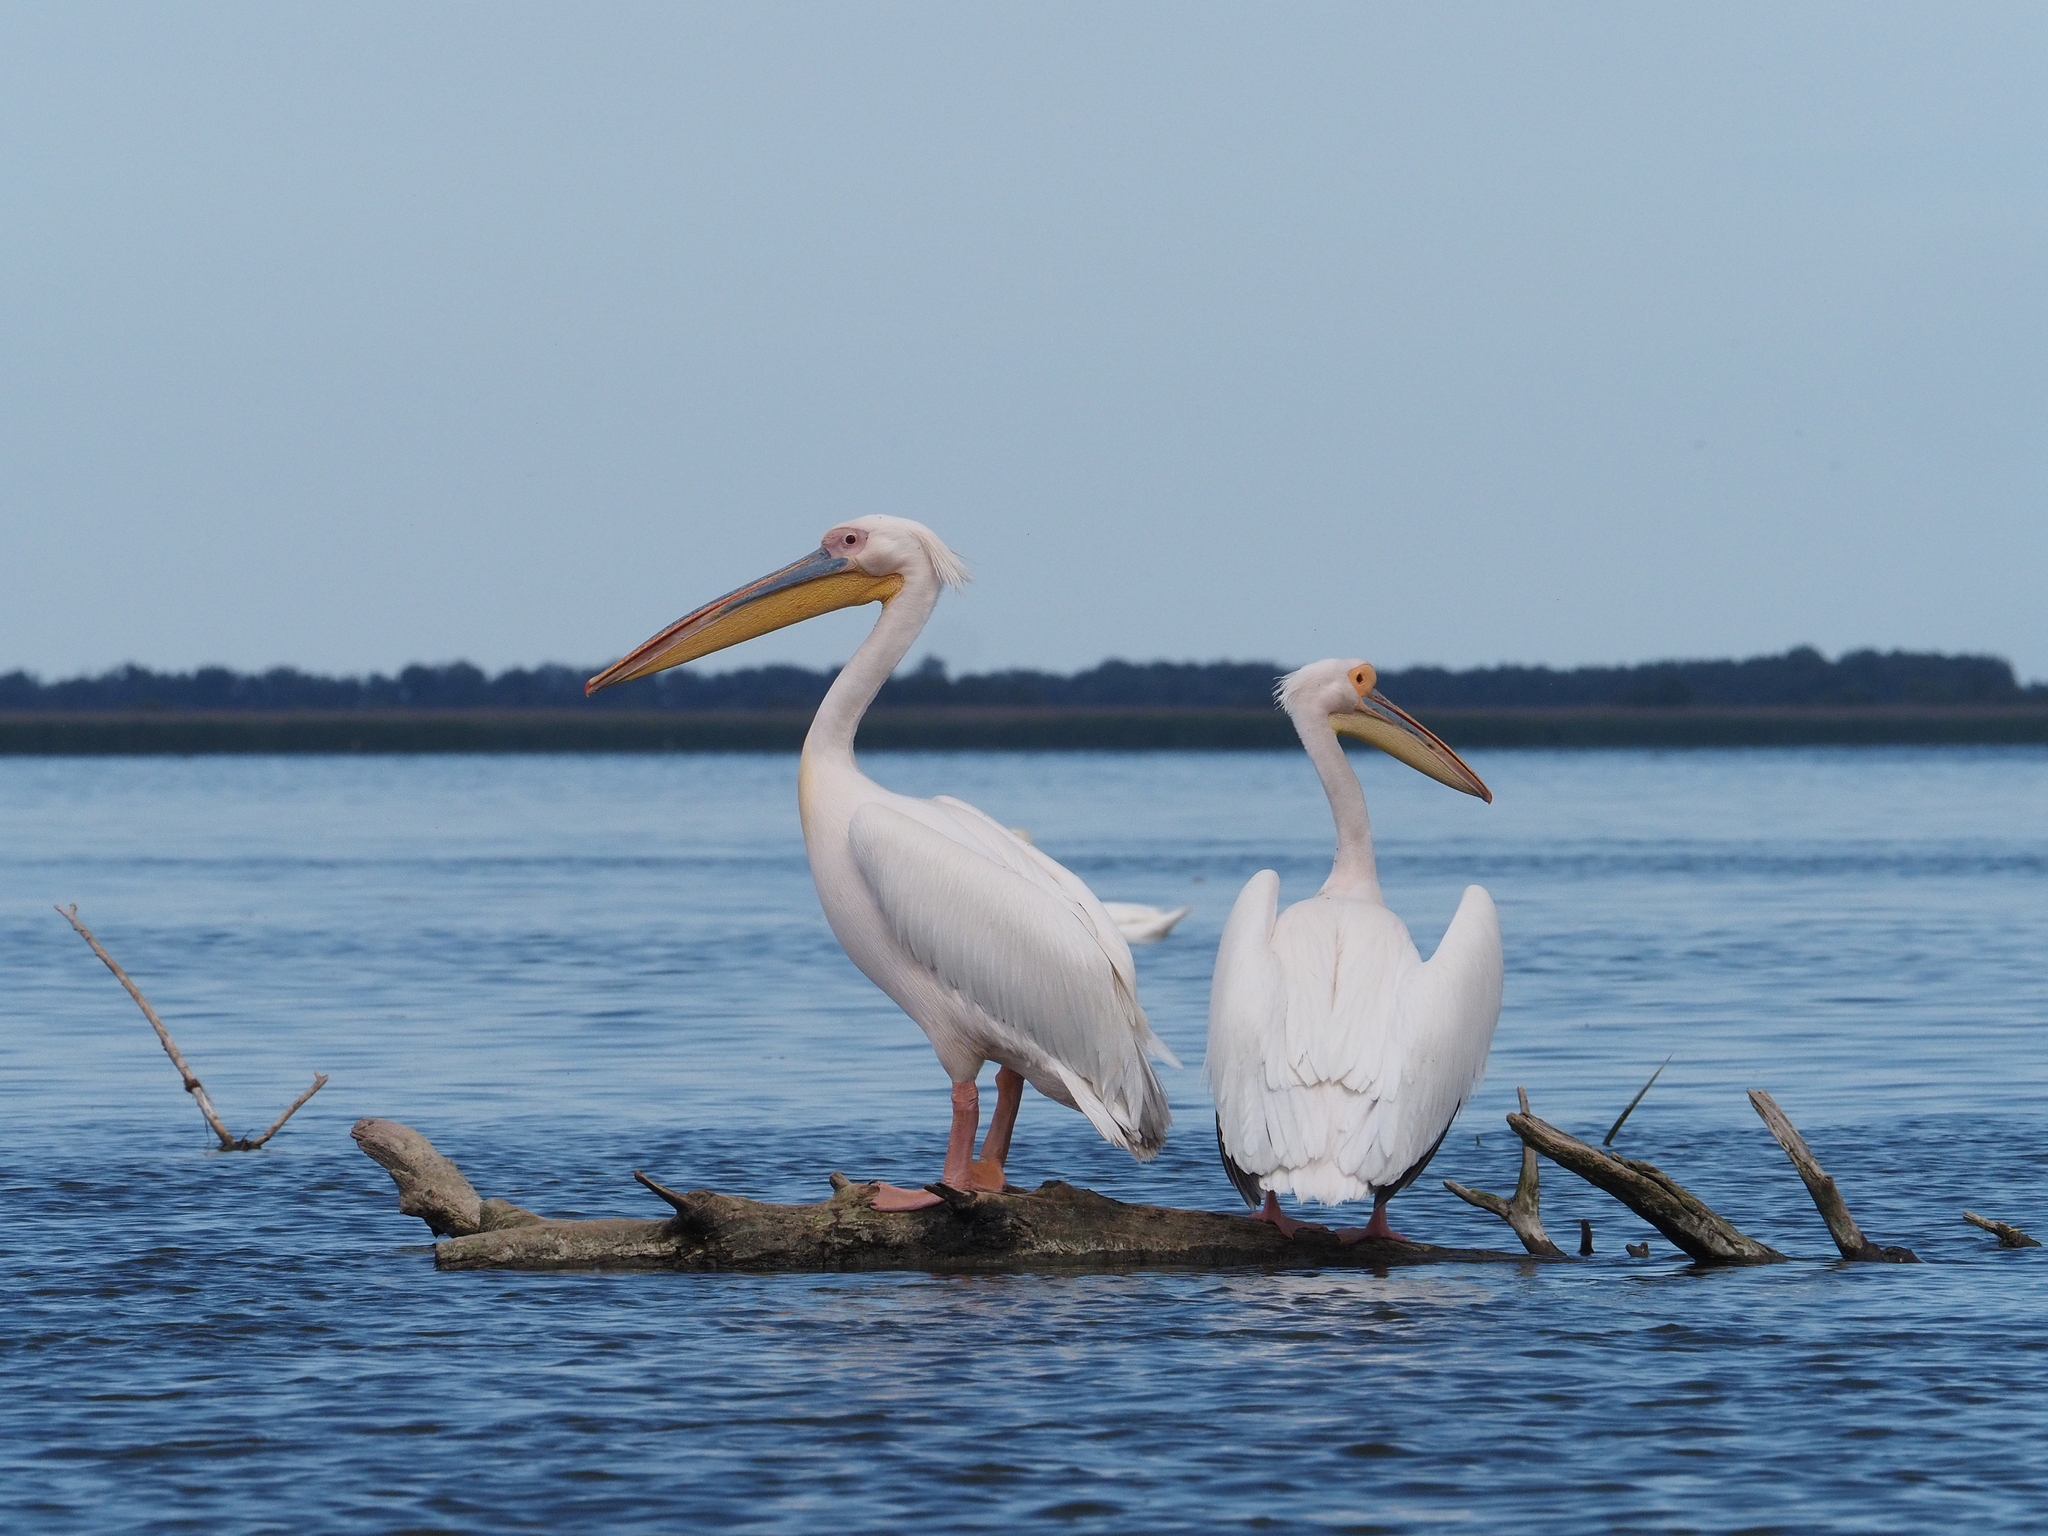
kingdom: Animalia
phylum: Chordata
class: Aves
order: Pelecaniformes
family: Pelecanidae
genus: Pelecanus
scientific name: Pelecanus onocrotalus
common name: Great white pelican
